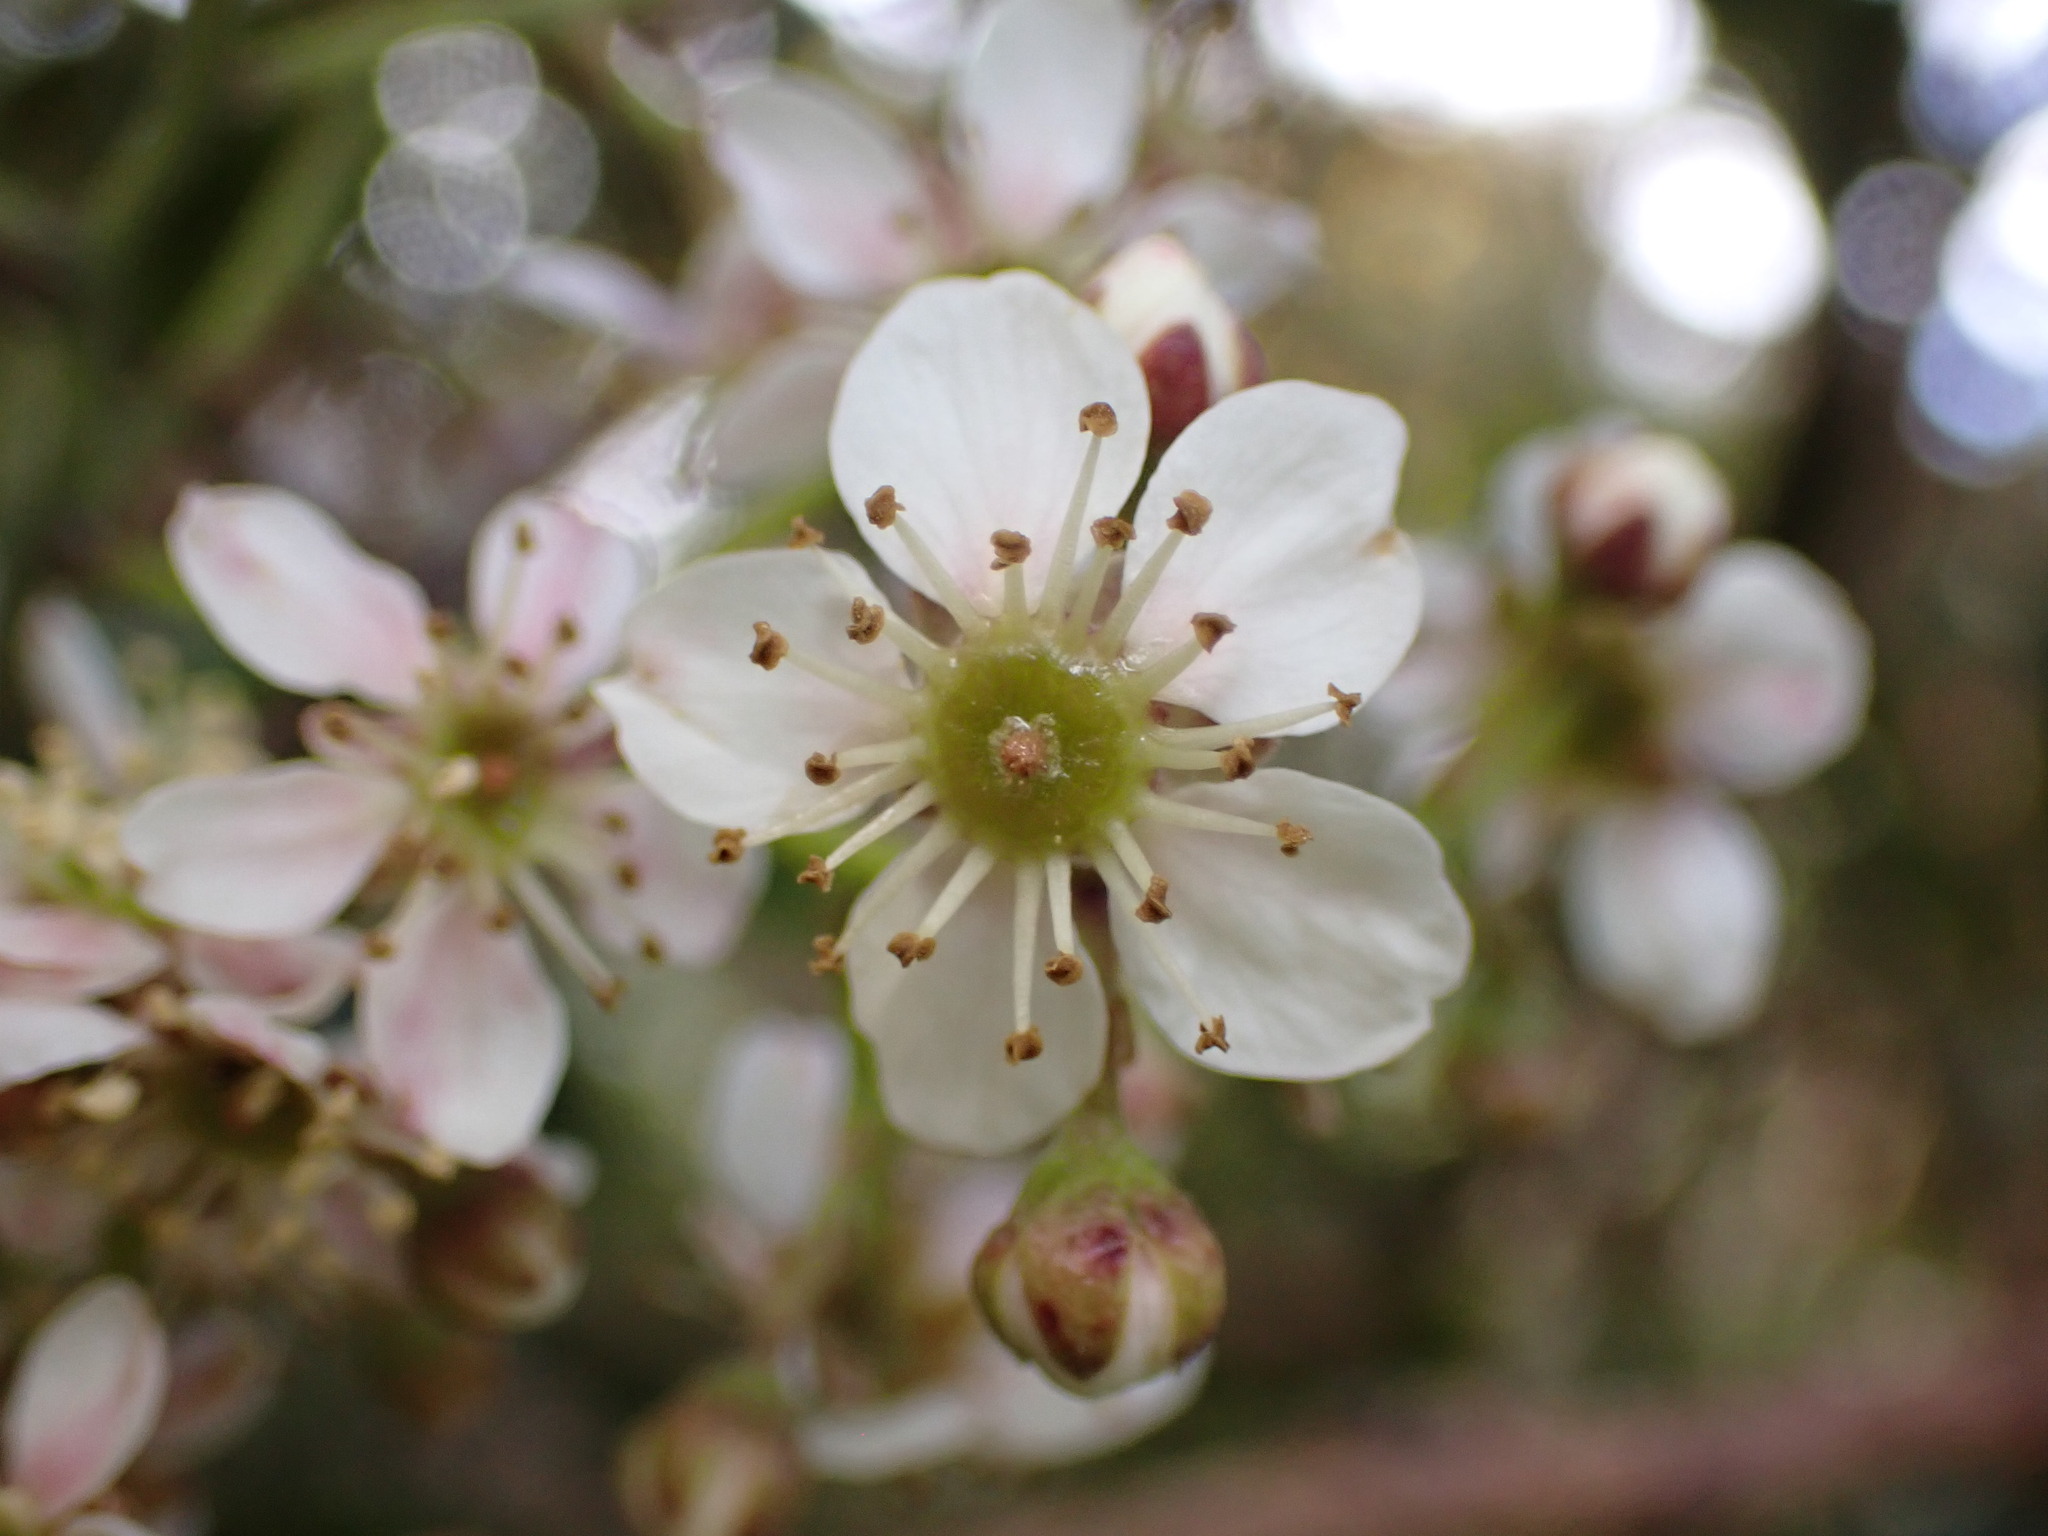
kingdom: Plantae
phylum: Tracheophyta
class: Magnoliopsida
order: Rosales
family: Rosaceae
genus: Rubus
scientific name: Rubus cissoides
